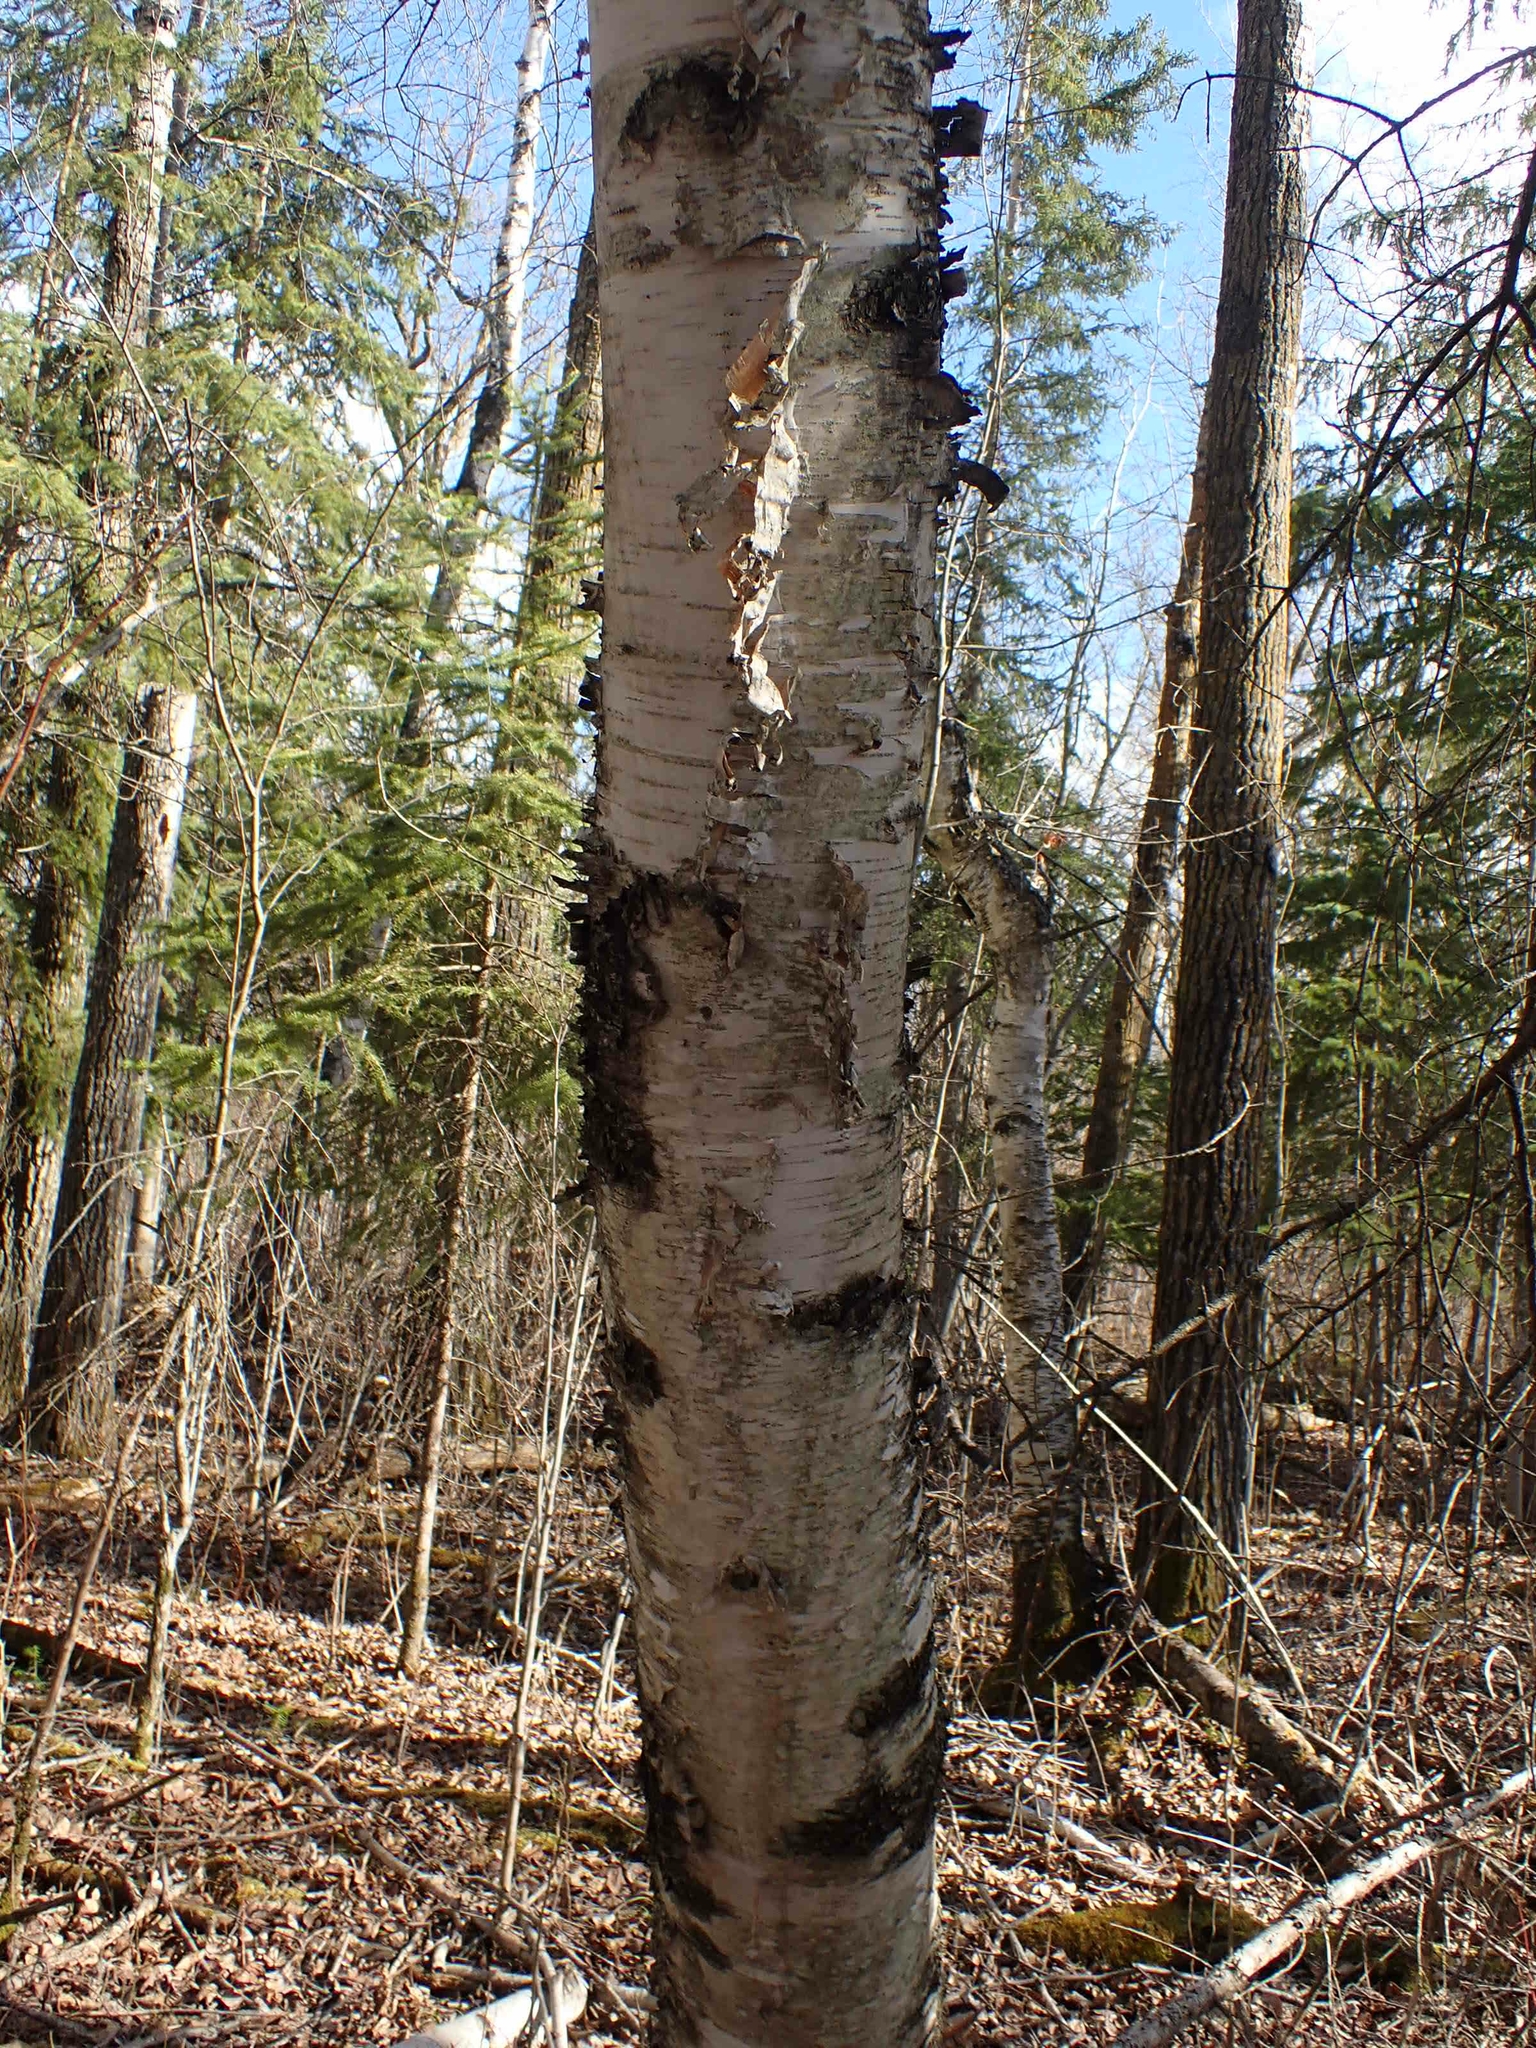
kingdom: Plantae
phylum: Tracheophyta
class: Magnoliopsida
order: Fagales
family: Betulaceae
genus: Betula
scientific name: Betula papyrifera
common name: Paper birch
